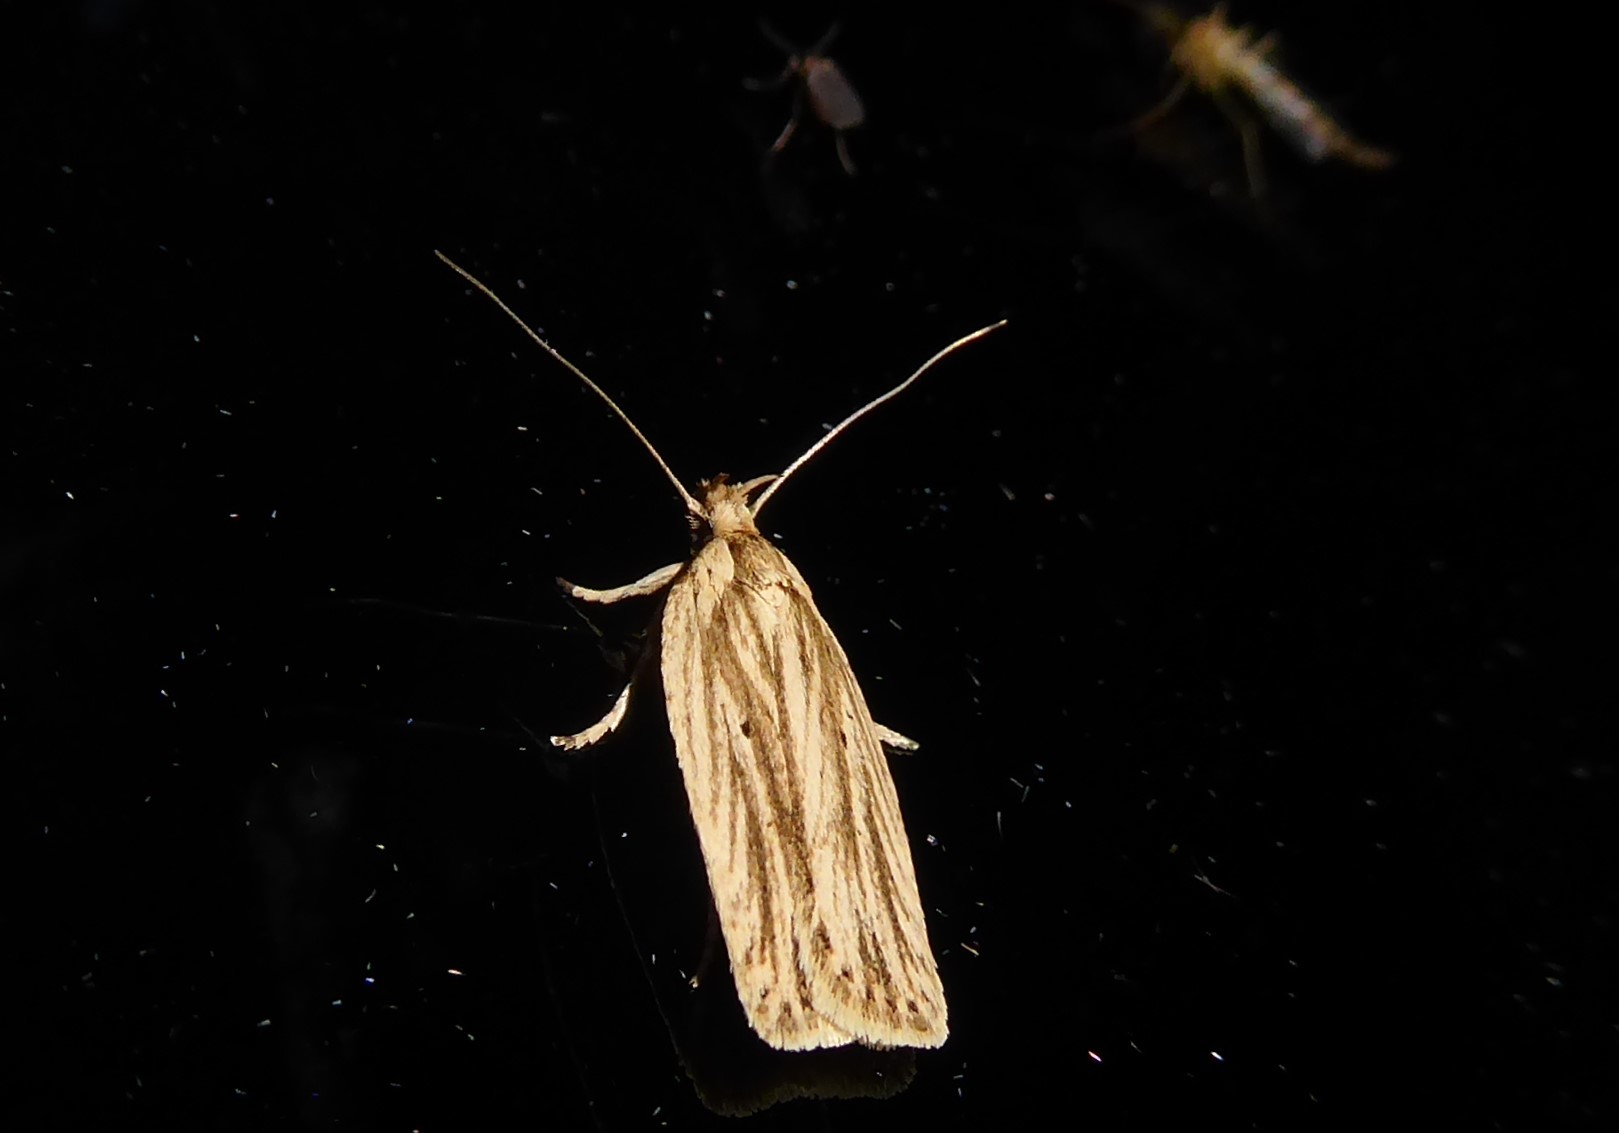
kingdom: Animalia
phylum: Arthropoda
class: Insecta
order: Lepidoptera
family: Depressariidae
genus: Agonopterix
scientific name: Agonopterix
